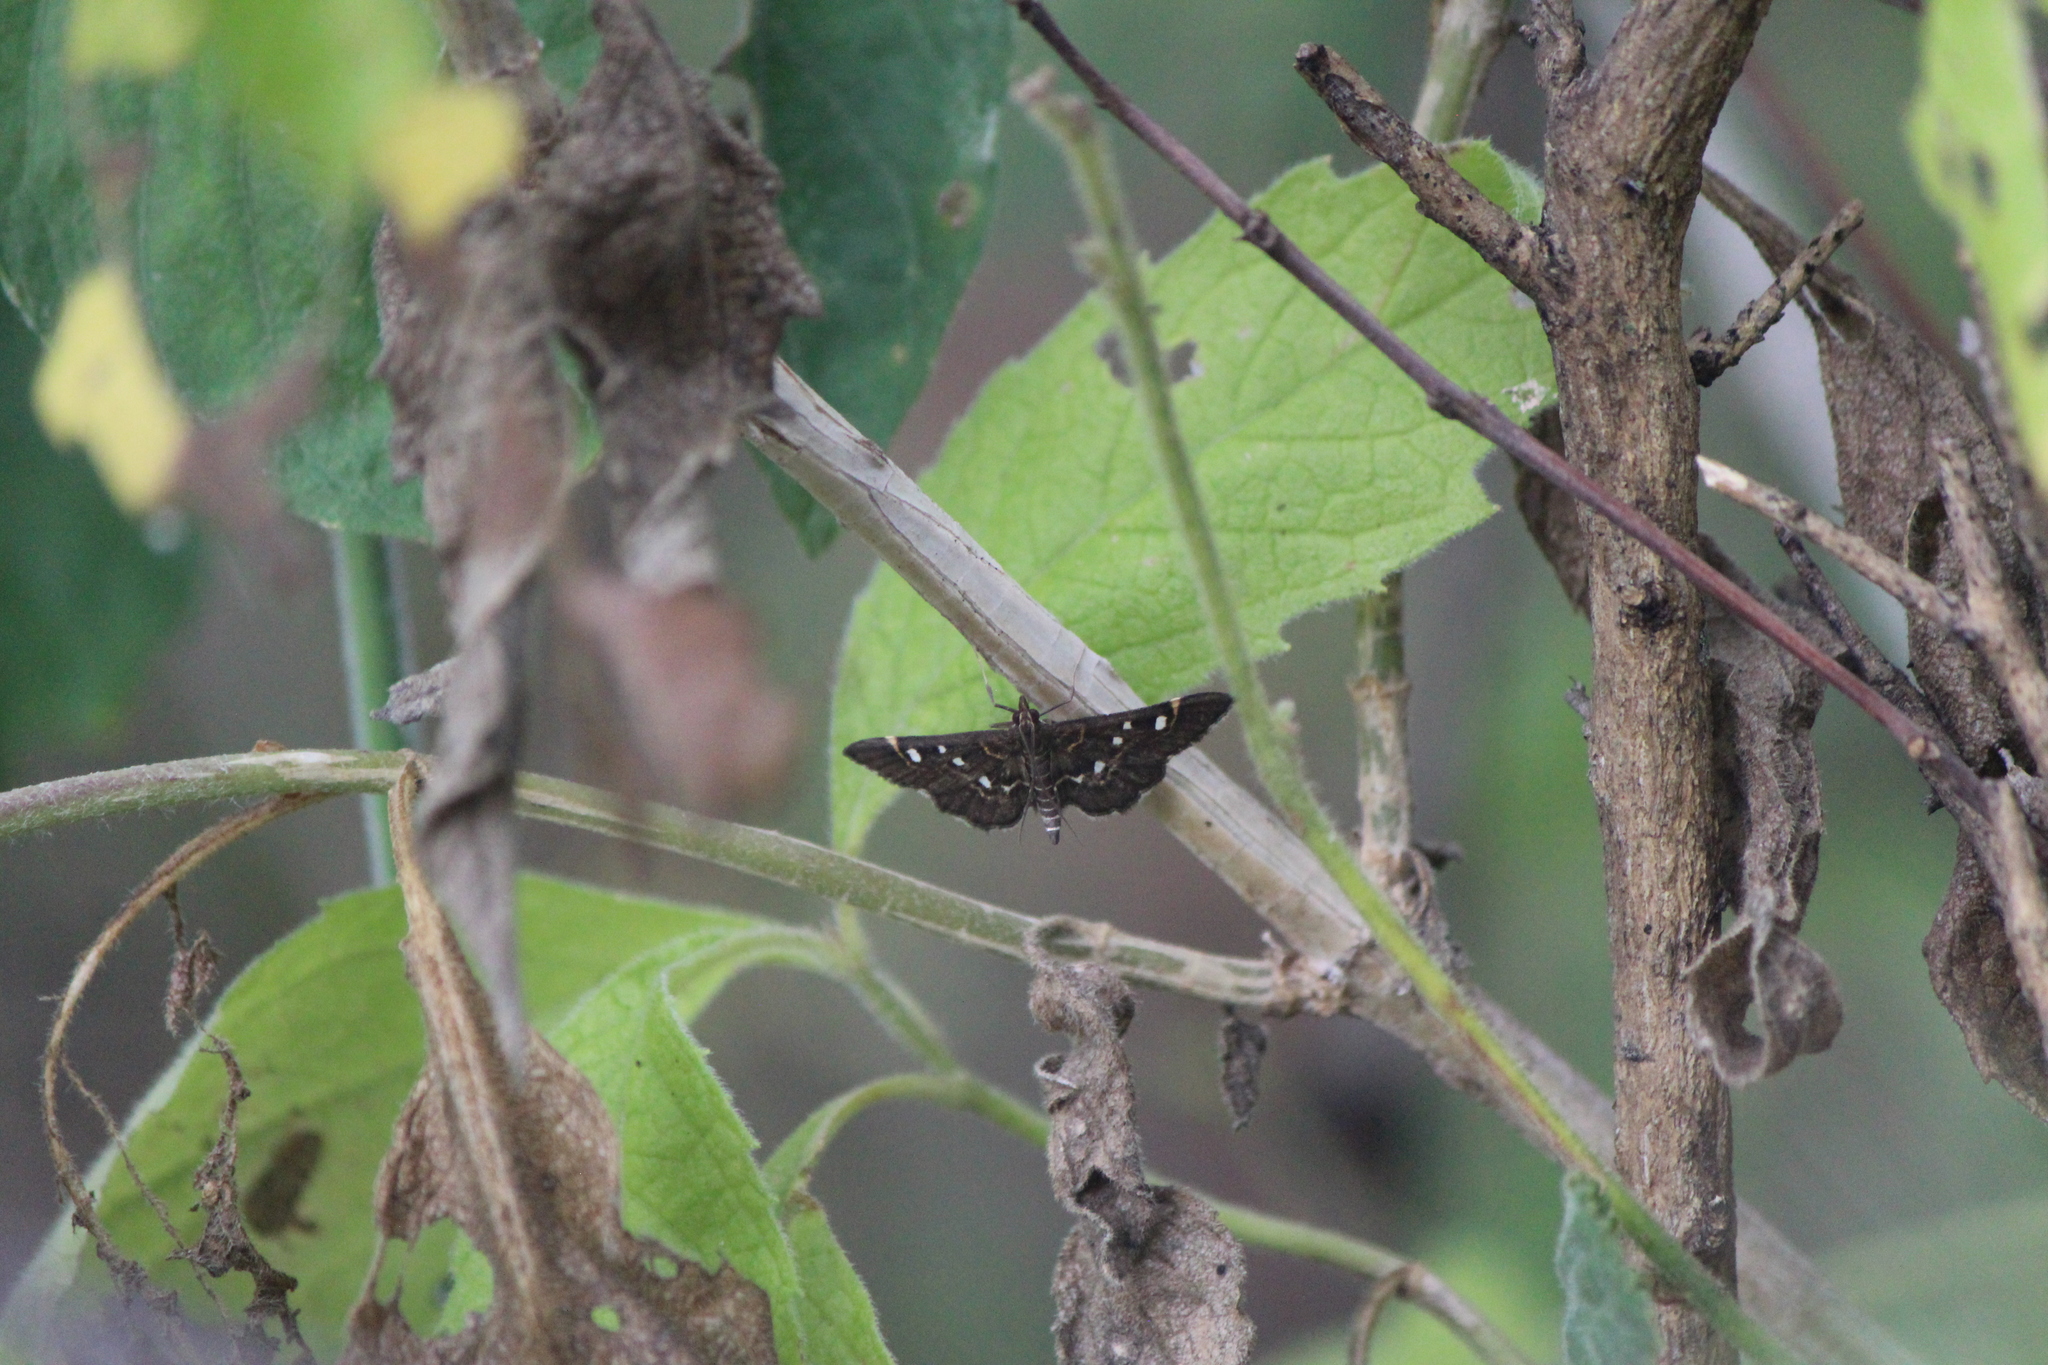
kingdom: Animalia
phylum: Arthropoda
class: Insecta
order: Lepidoptera
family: Crambidae
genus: Diathrausta
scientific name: Diathrausta harlequinalis
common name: Harlequin webworm moth
